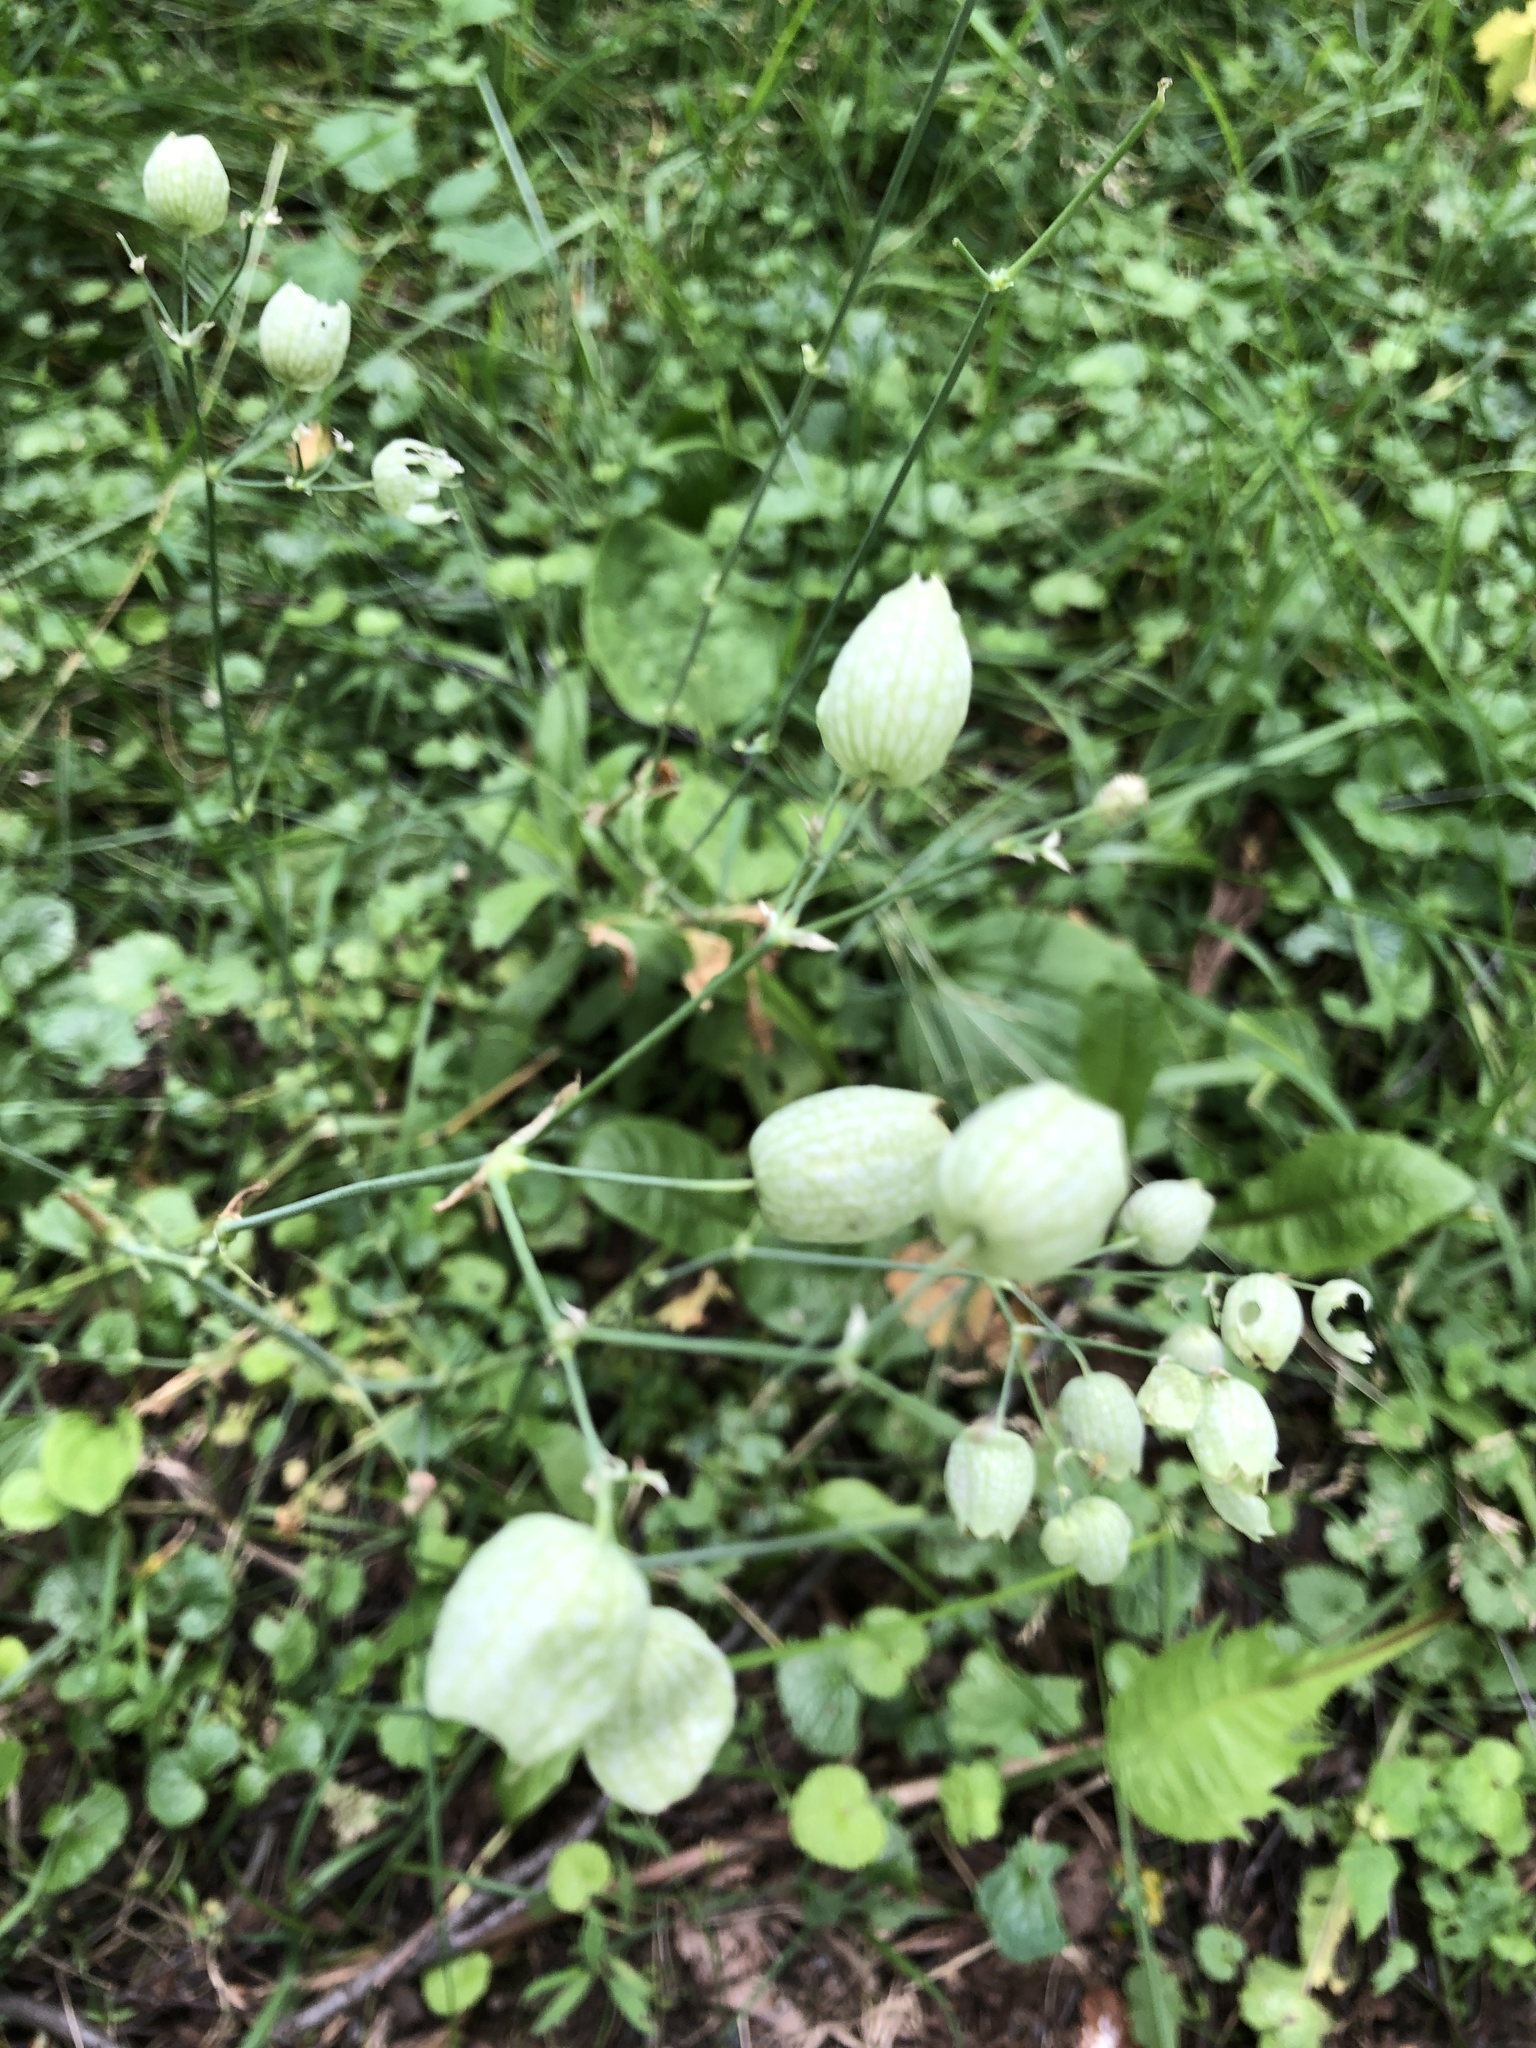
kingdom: Plantae
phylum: Tracheophyta
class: Magnoliopsida
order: Caryophyllales
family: Caryophyllaceae
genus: Silene
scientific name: Silene vulgaris
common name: Bladder campion
